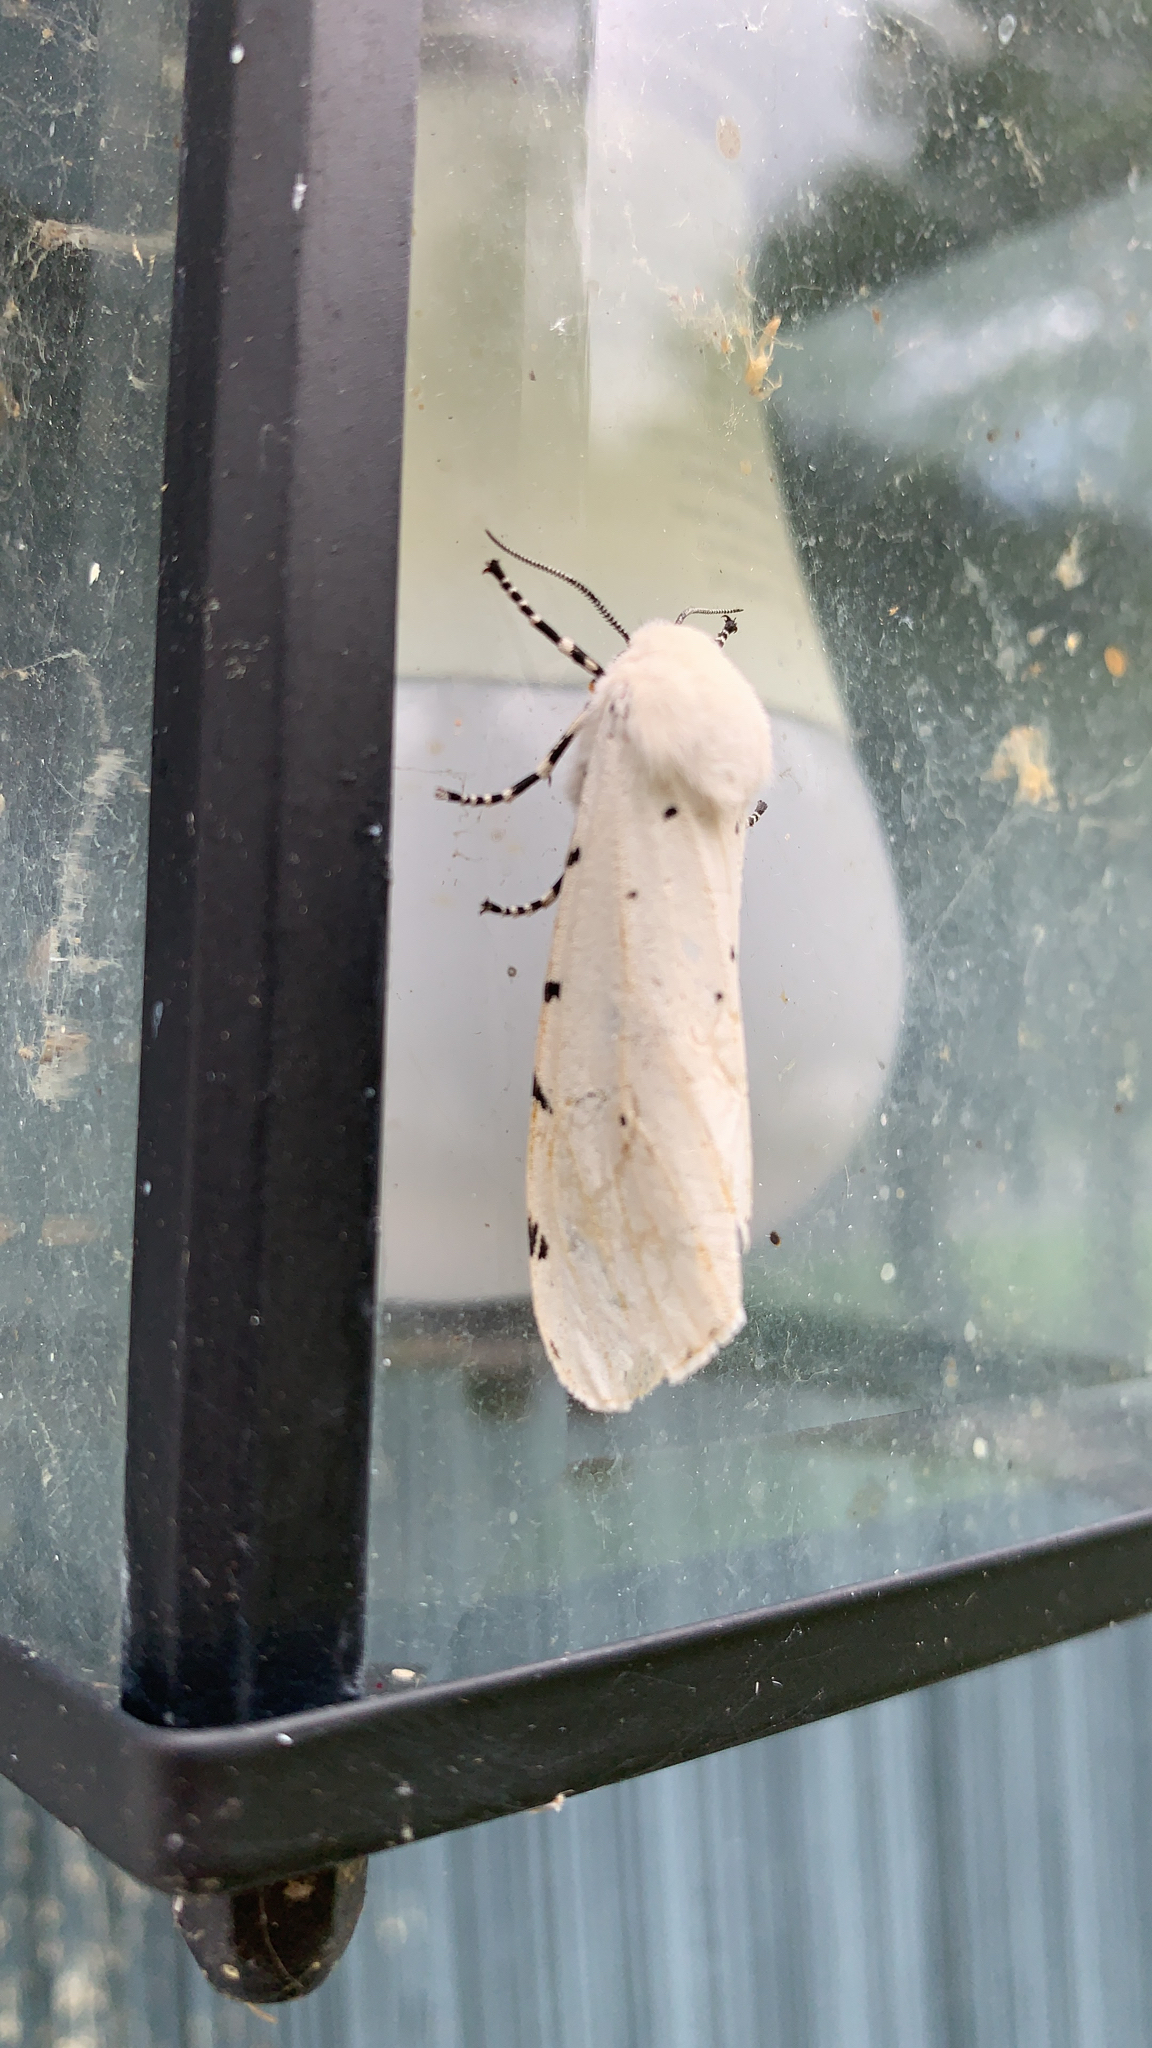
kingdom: Animalia
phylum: Arthropoda
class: Insecta
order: Lepidoptera
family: Erebidae
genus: Estigmene
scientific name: Estigmene acrea
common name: Salt marsh moth
